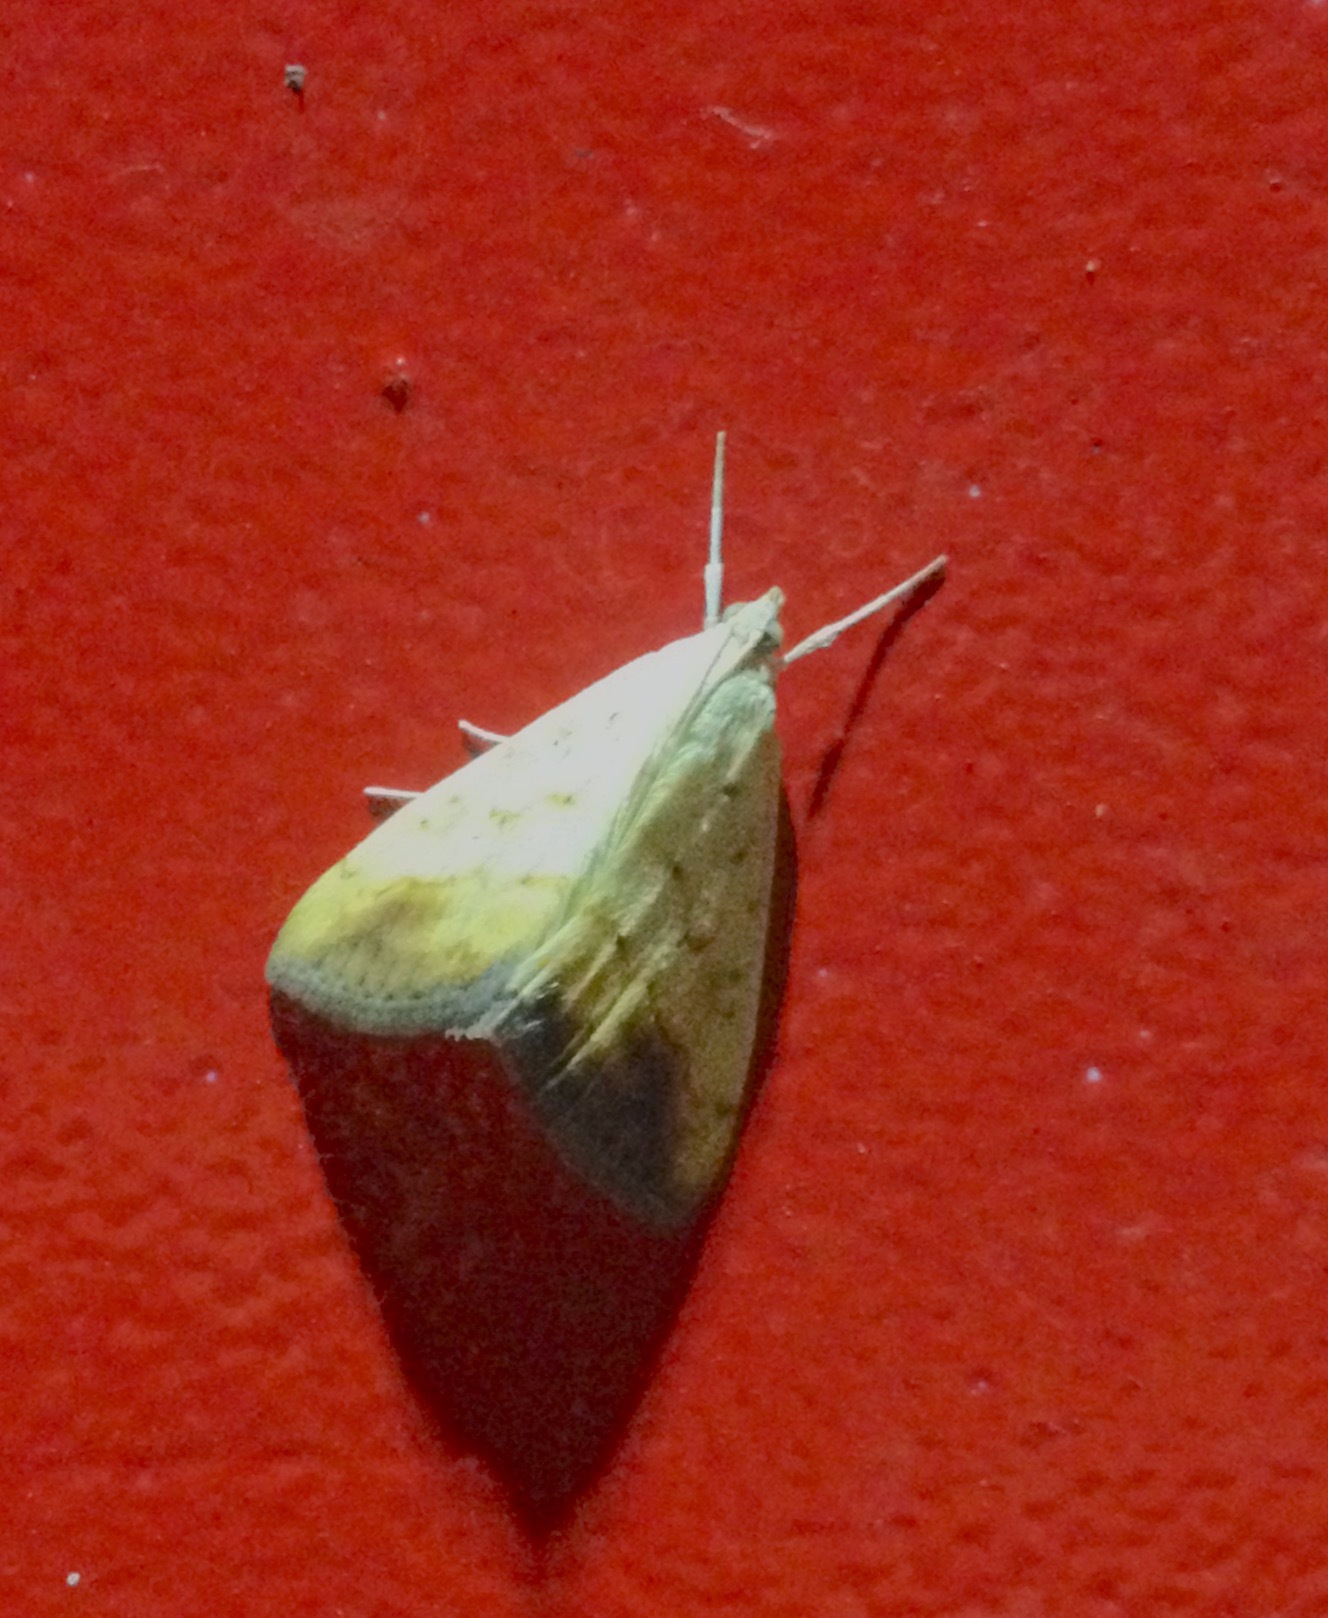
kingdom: Animalia
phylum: Arthropoda
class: Insecta
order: Lepidoptera
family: Crambidae
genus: Evergestis
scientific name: Evergestis extimalis
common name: Marbled yellow pearl
